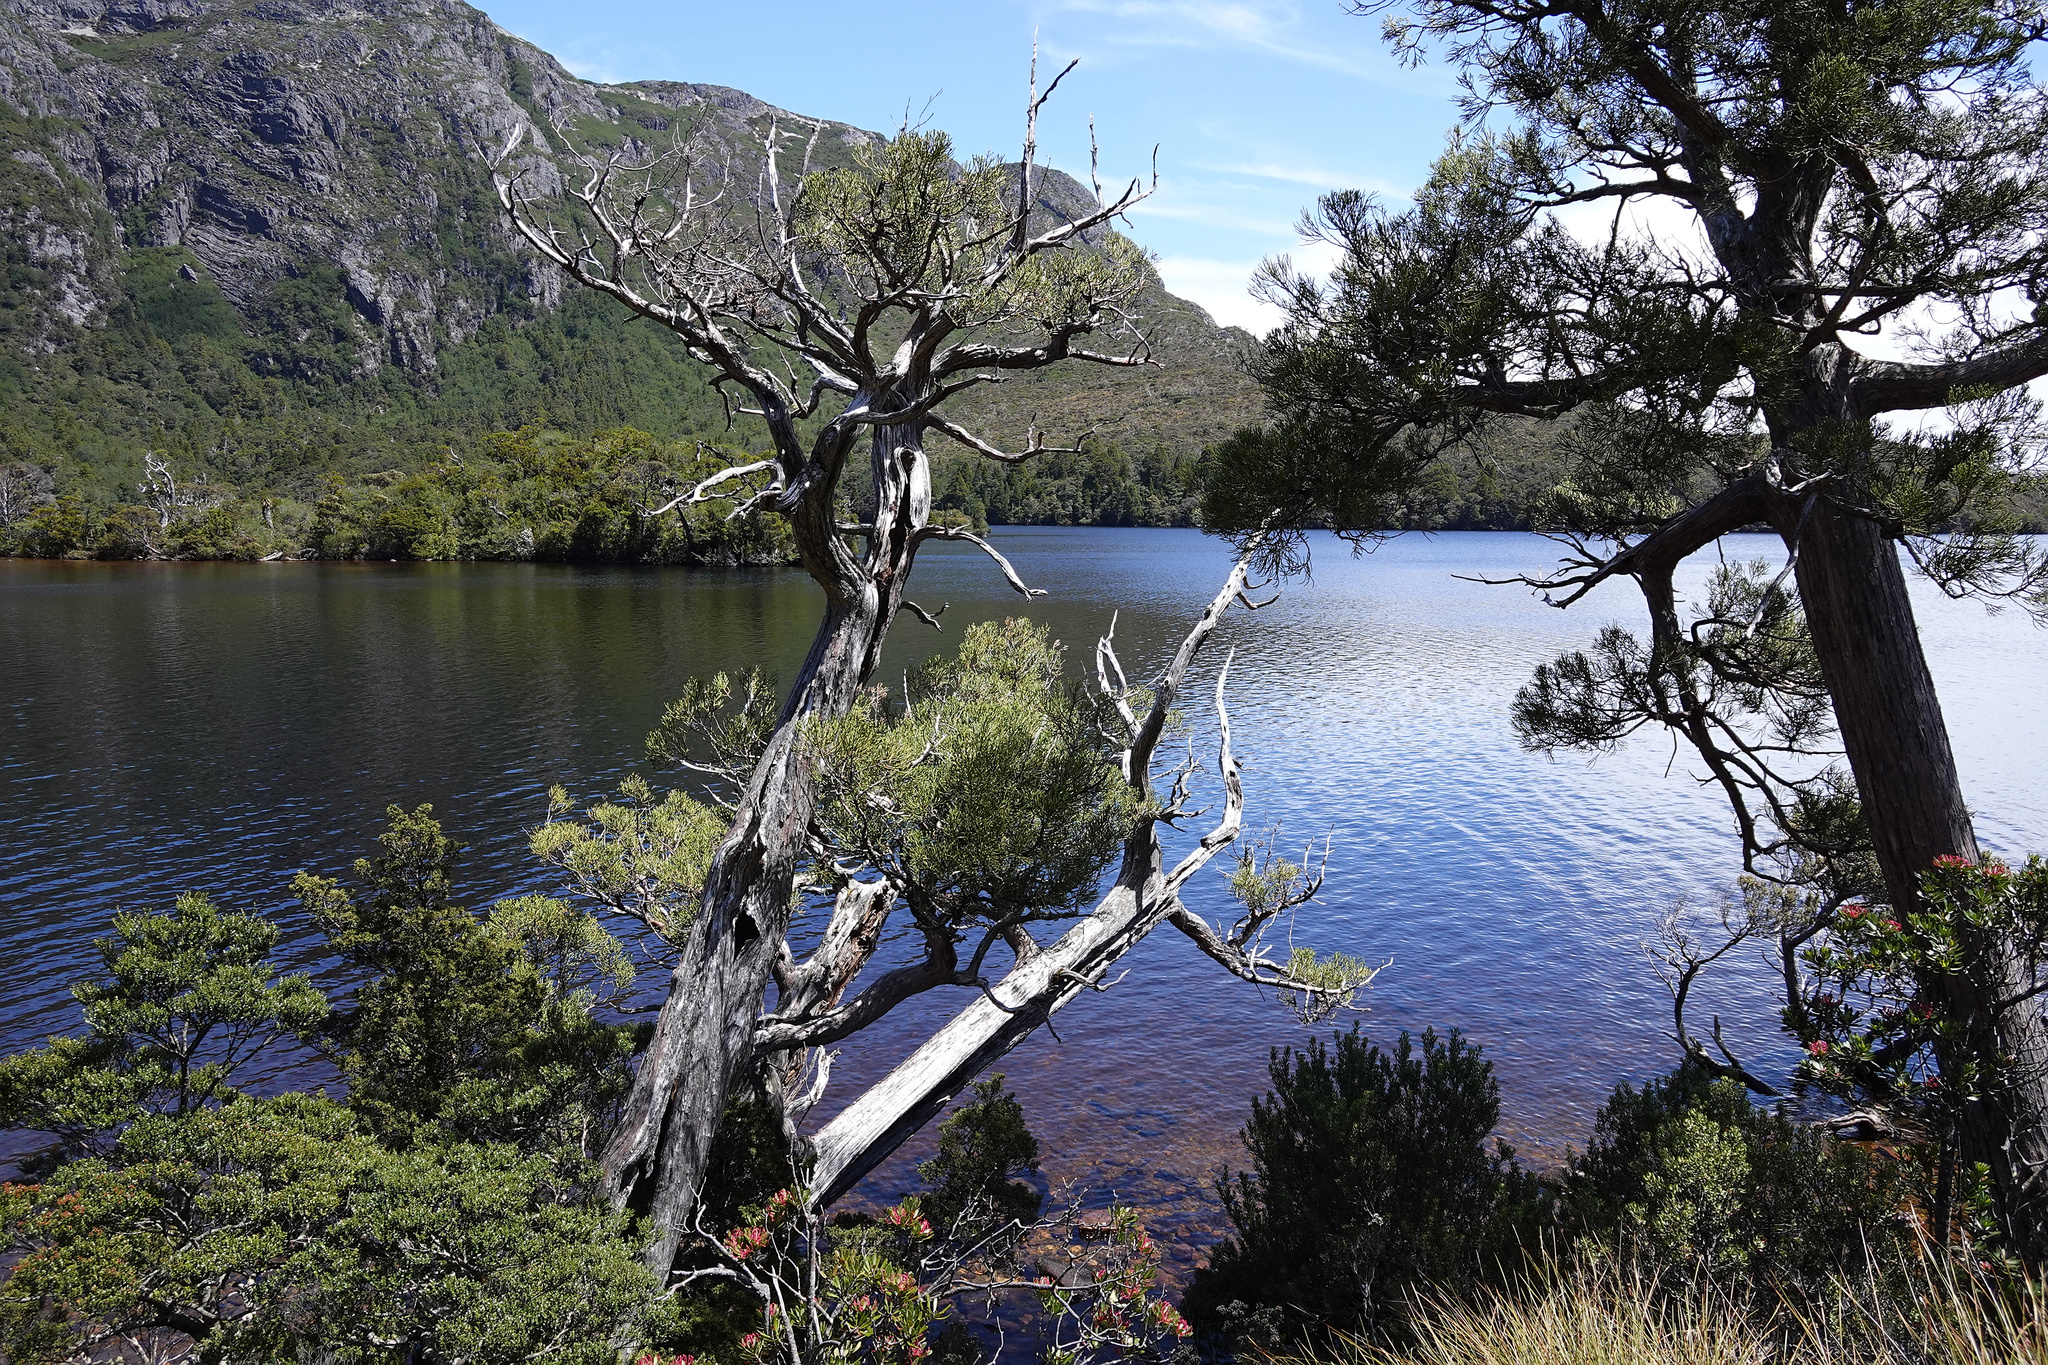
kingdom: Plantae
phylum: Tracheophyta
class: Pinopsida
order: Pinales
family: Cupressaceae
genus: Athrotaxis
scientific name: Athrotaxis cupressoides
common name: Tasmanian pencil pine
